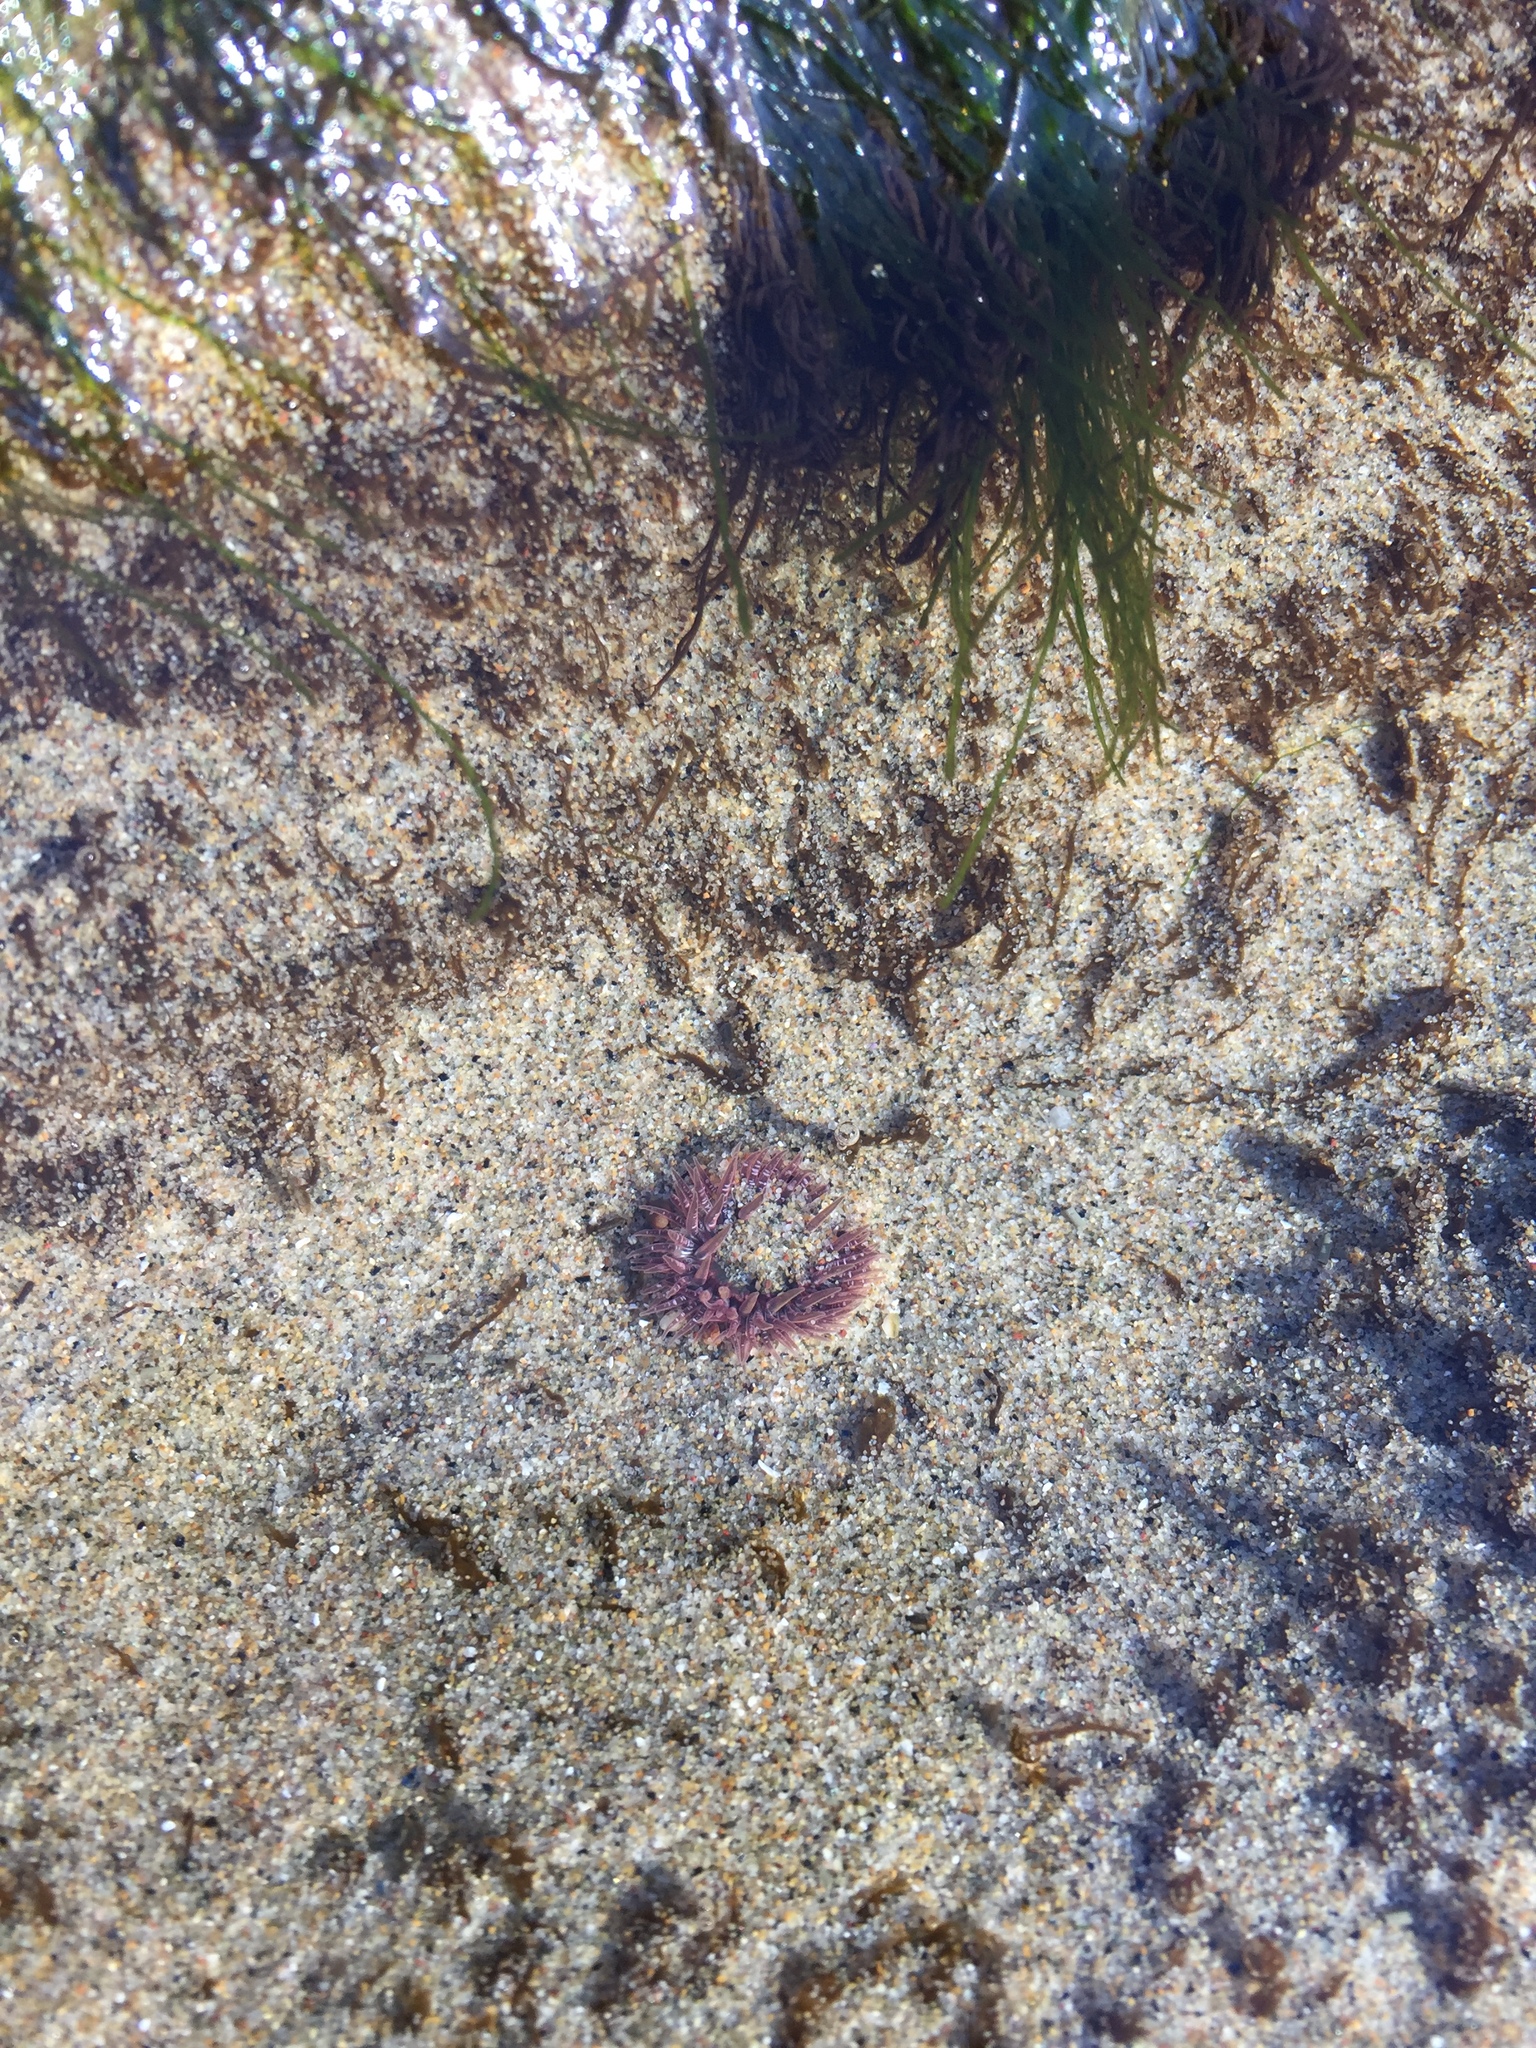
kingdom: Animalia
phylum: Cnidaria
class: Anthozoa
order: Actiniaria
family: Actiniidae
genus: Anthopleura
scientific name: Anthopleura artemisia
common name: Buried sea anemone
